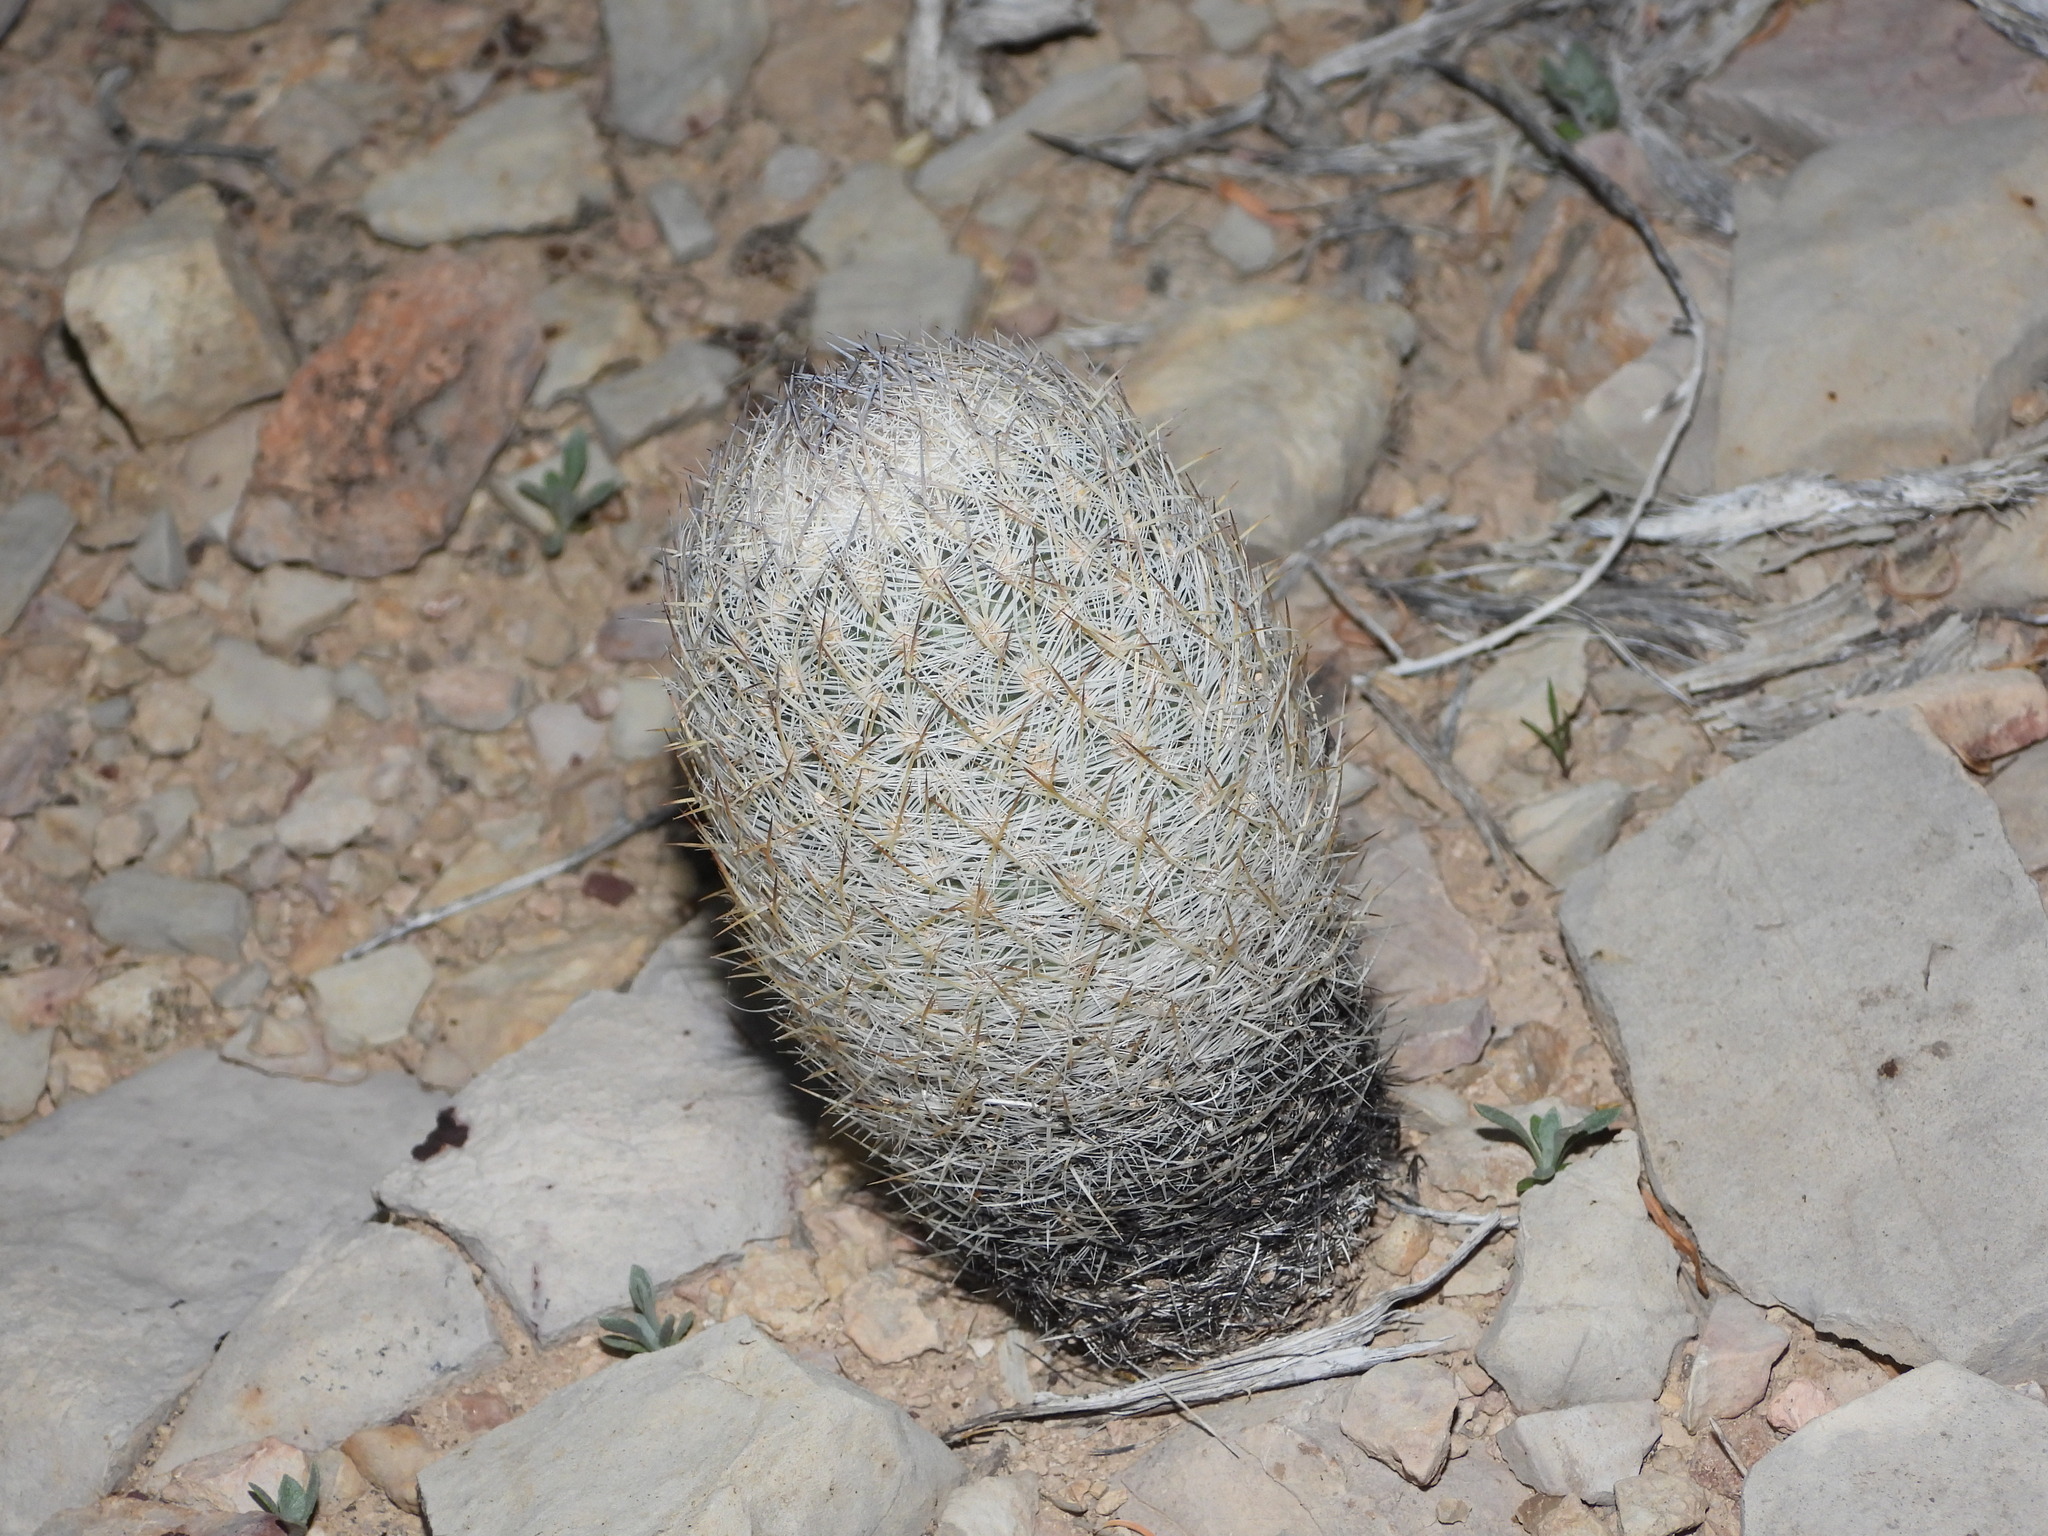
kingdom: Plantae
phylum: Tracheophyta
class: Magnoliopsida
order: Caryophyllales
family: Cactaceae
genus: Sclerocactus
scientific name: Sclerocactus mariposensis
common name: Golfball cactus
